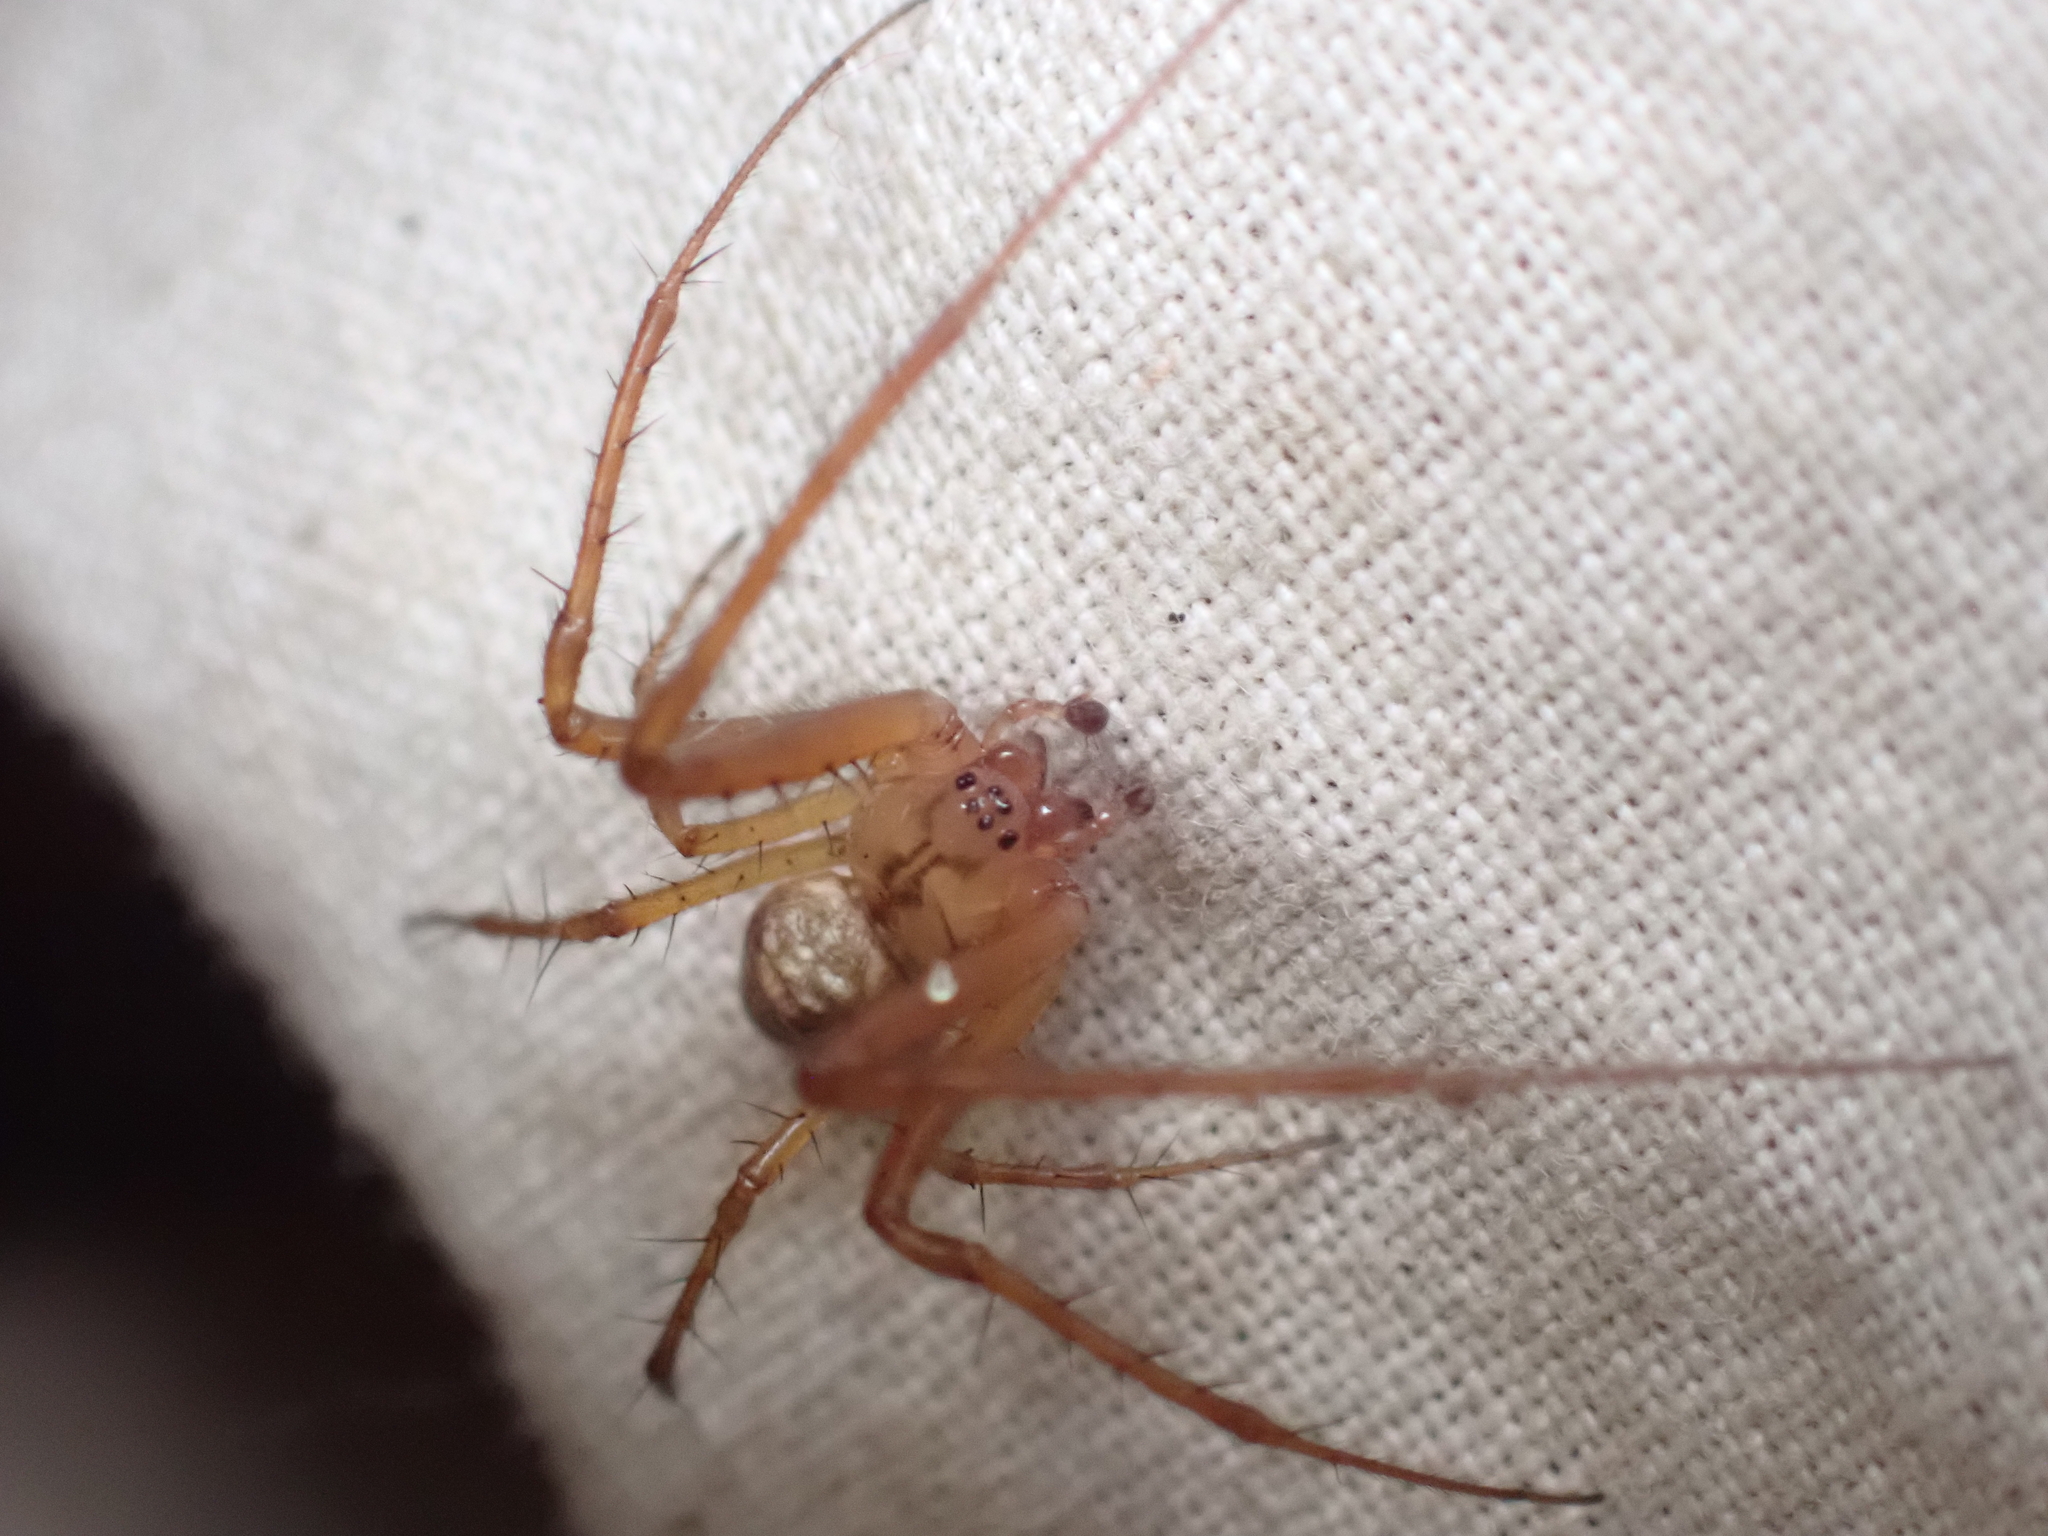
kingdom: Animalia
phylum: Arthropoda
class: Arachnida
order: Araneae
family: Tetragnathidae
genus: Metellina
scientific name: Metellina segmentata
